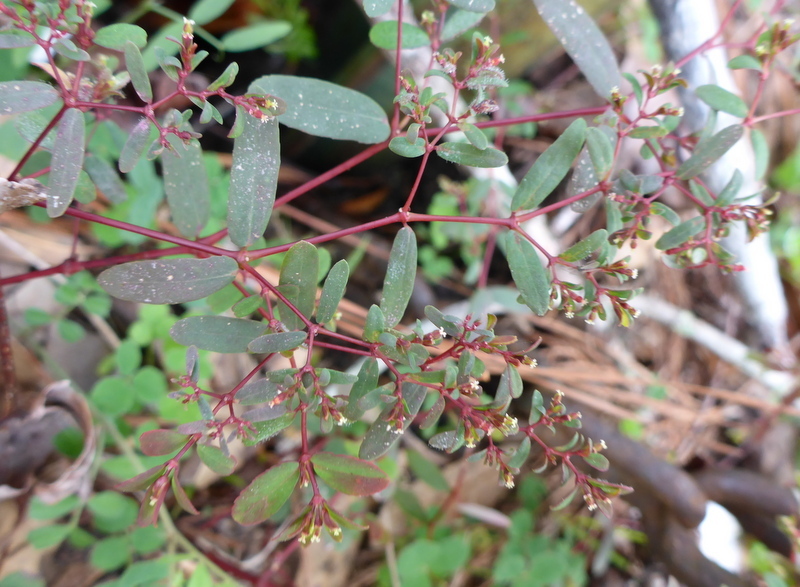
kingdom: Plantae
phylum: Tracheophyta
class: Magnoliopsida
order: Malpighiales
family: Euphorbiaceae
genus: Euphorbia
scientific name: Euphorbia hyssopifolia
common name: Hyssopleaf sandmat
